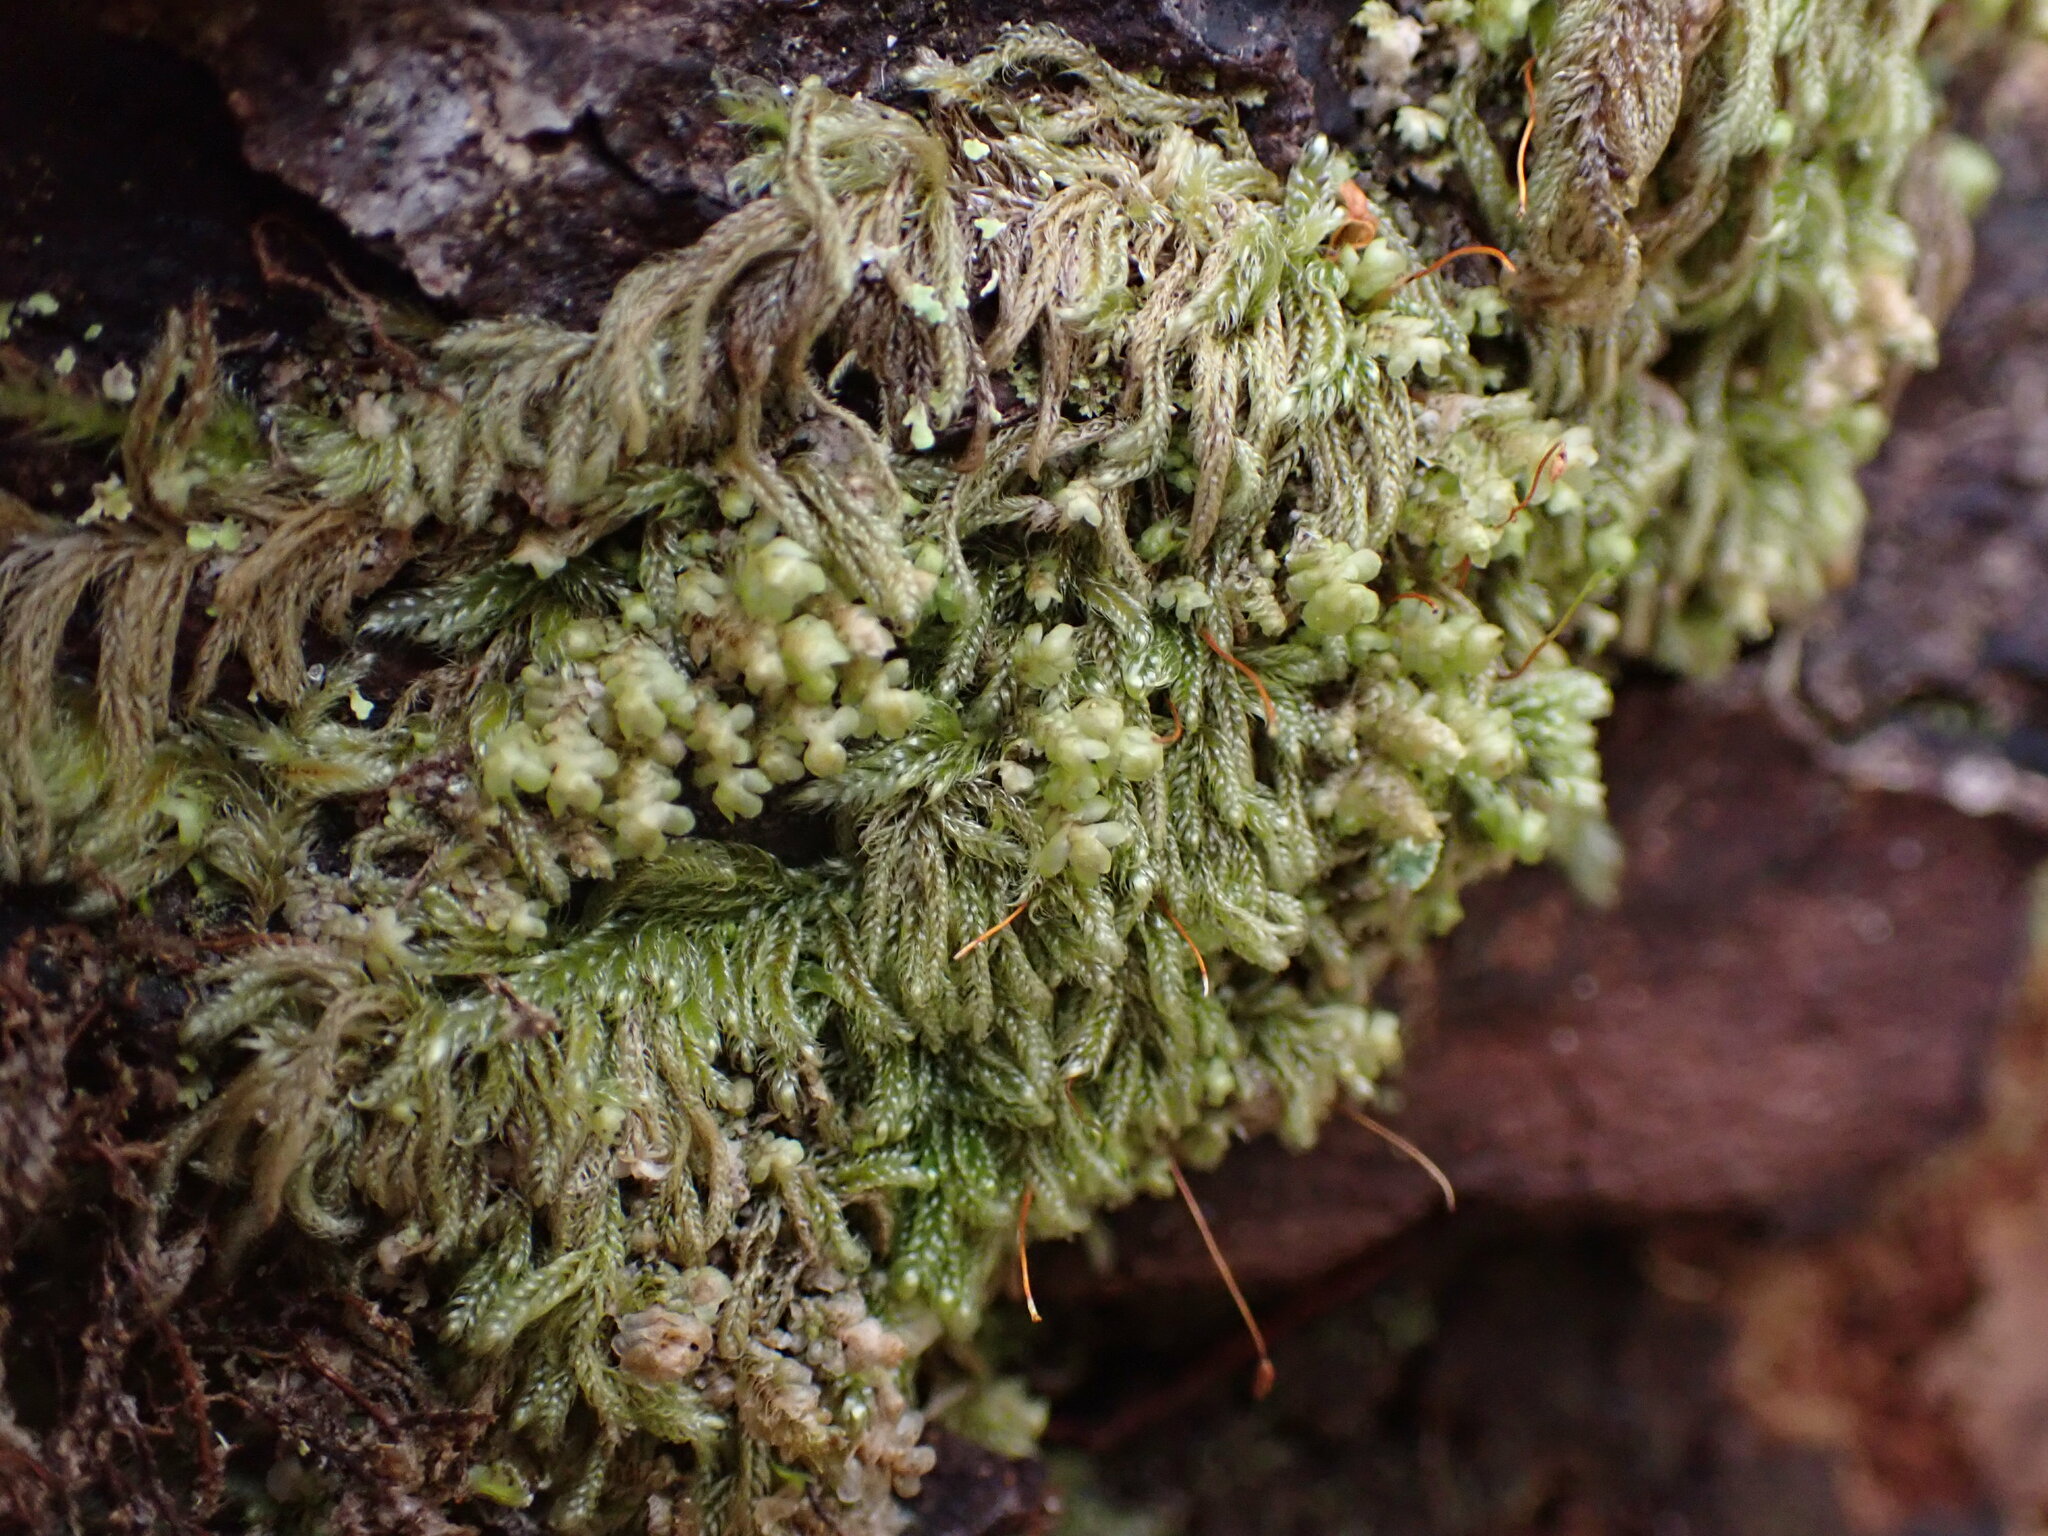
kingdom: Plantae
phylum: Bryophyta
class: Bryopsida
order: Hypnales
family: Pylaisiadelphaceae
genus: Trochophyllohypnum
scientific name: Trochophyllohypnum circinale
